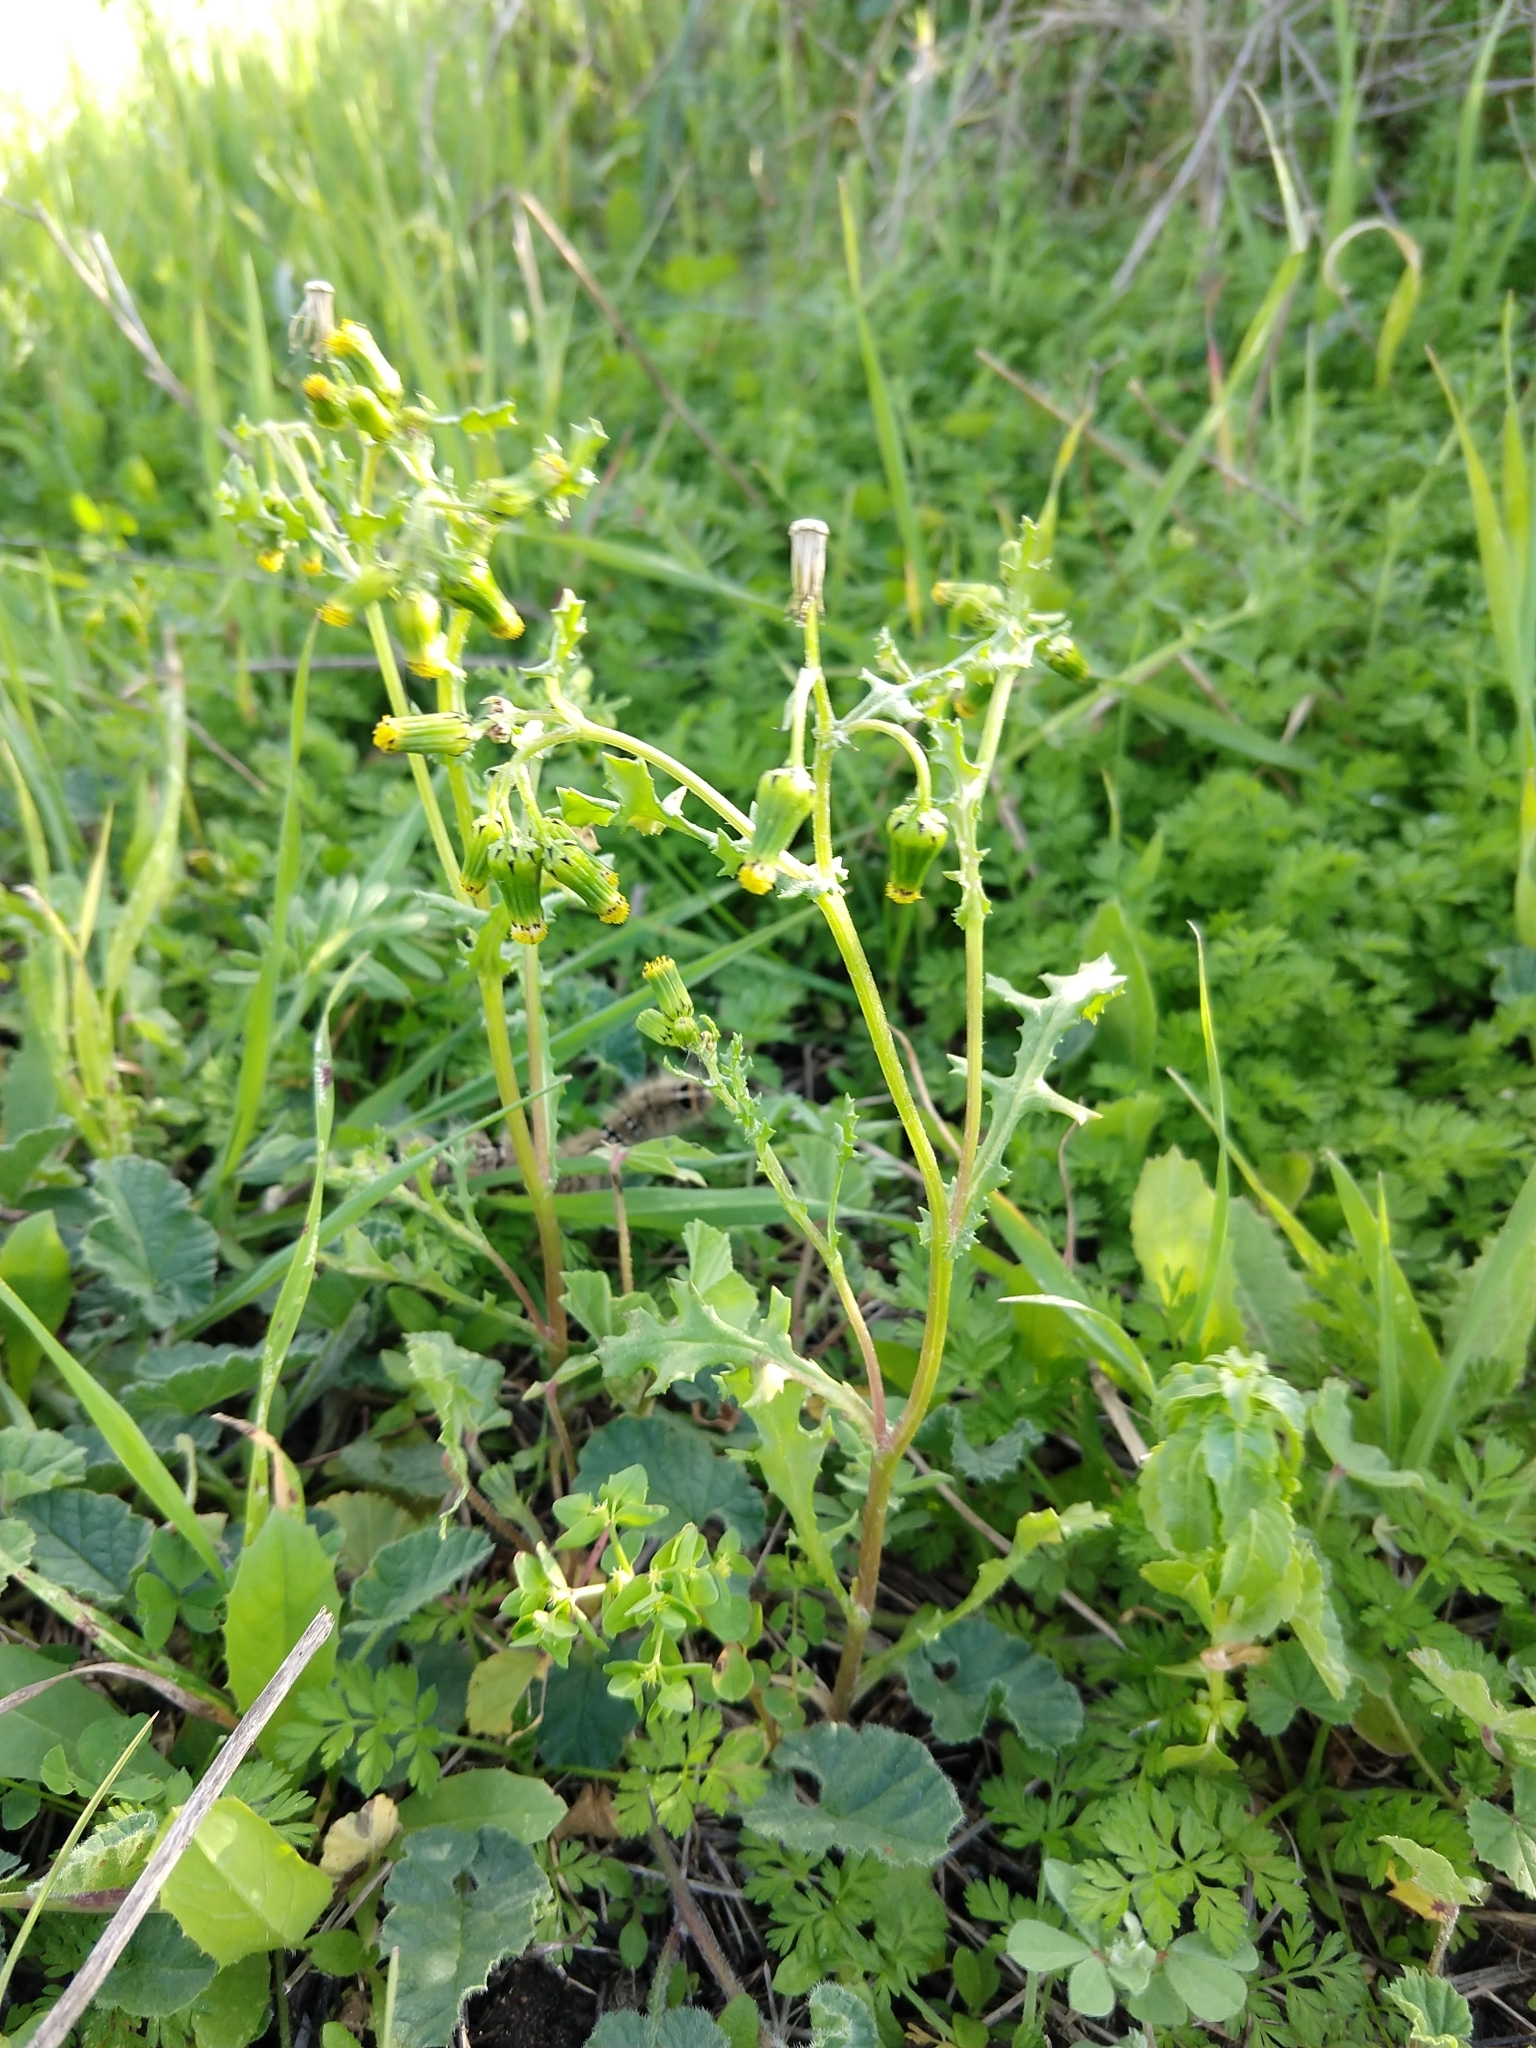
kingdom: Plantae
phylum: Tracheophyta
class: Magnoliopsida
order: Asterales
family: Asteraceae
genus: Senecio
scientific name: Senecio vulgaris
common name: Old-man-in-the-spring
